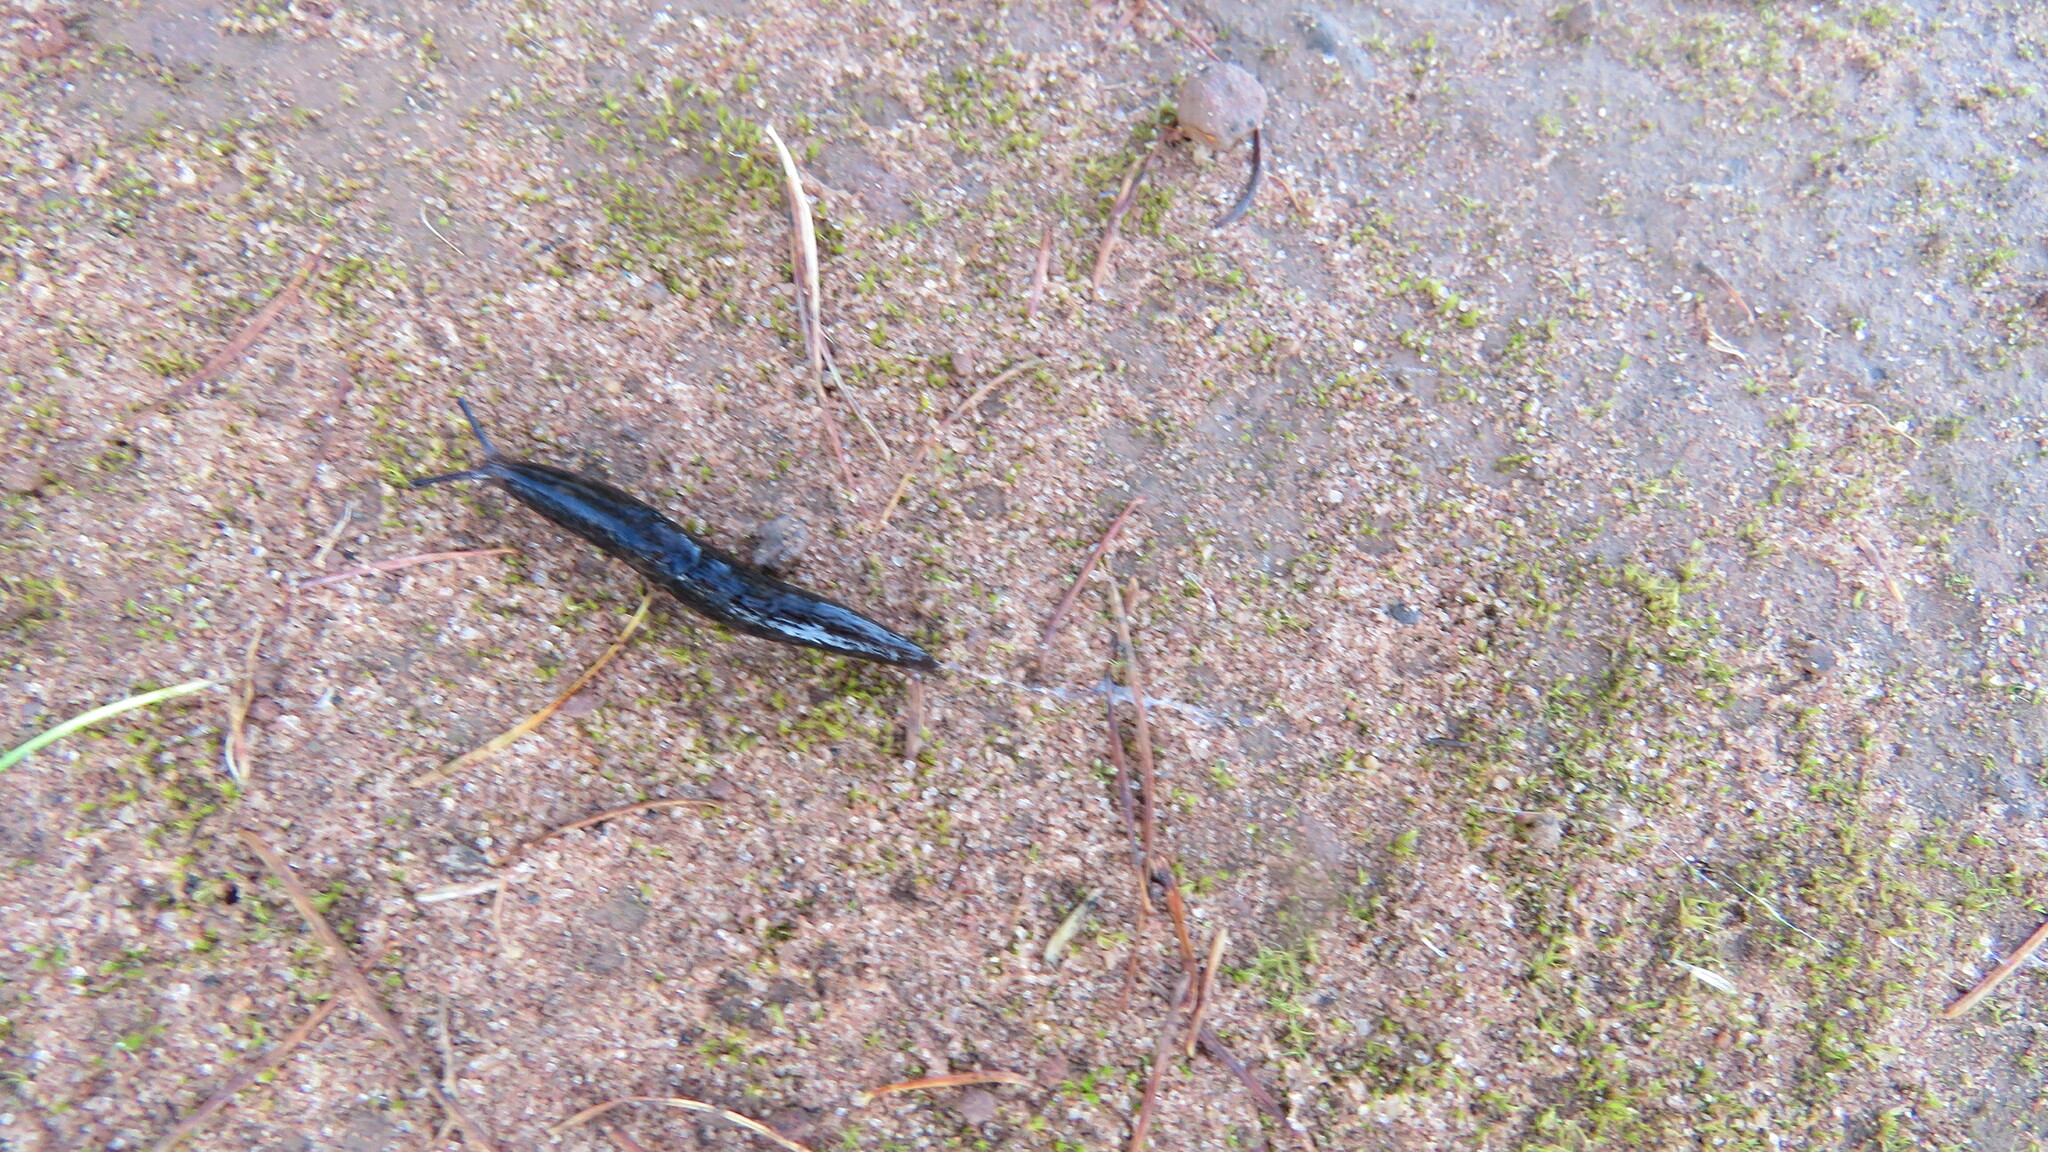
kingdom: Animalia
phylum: Mollusca
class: Gastropoda
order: Stylommatophora
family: Agriolimacidae
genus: Deroceras
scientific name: Deroceras laeve
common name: Marsh slug
